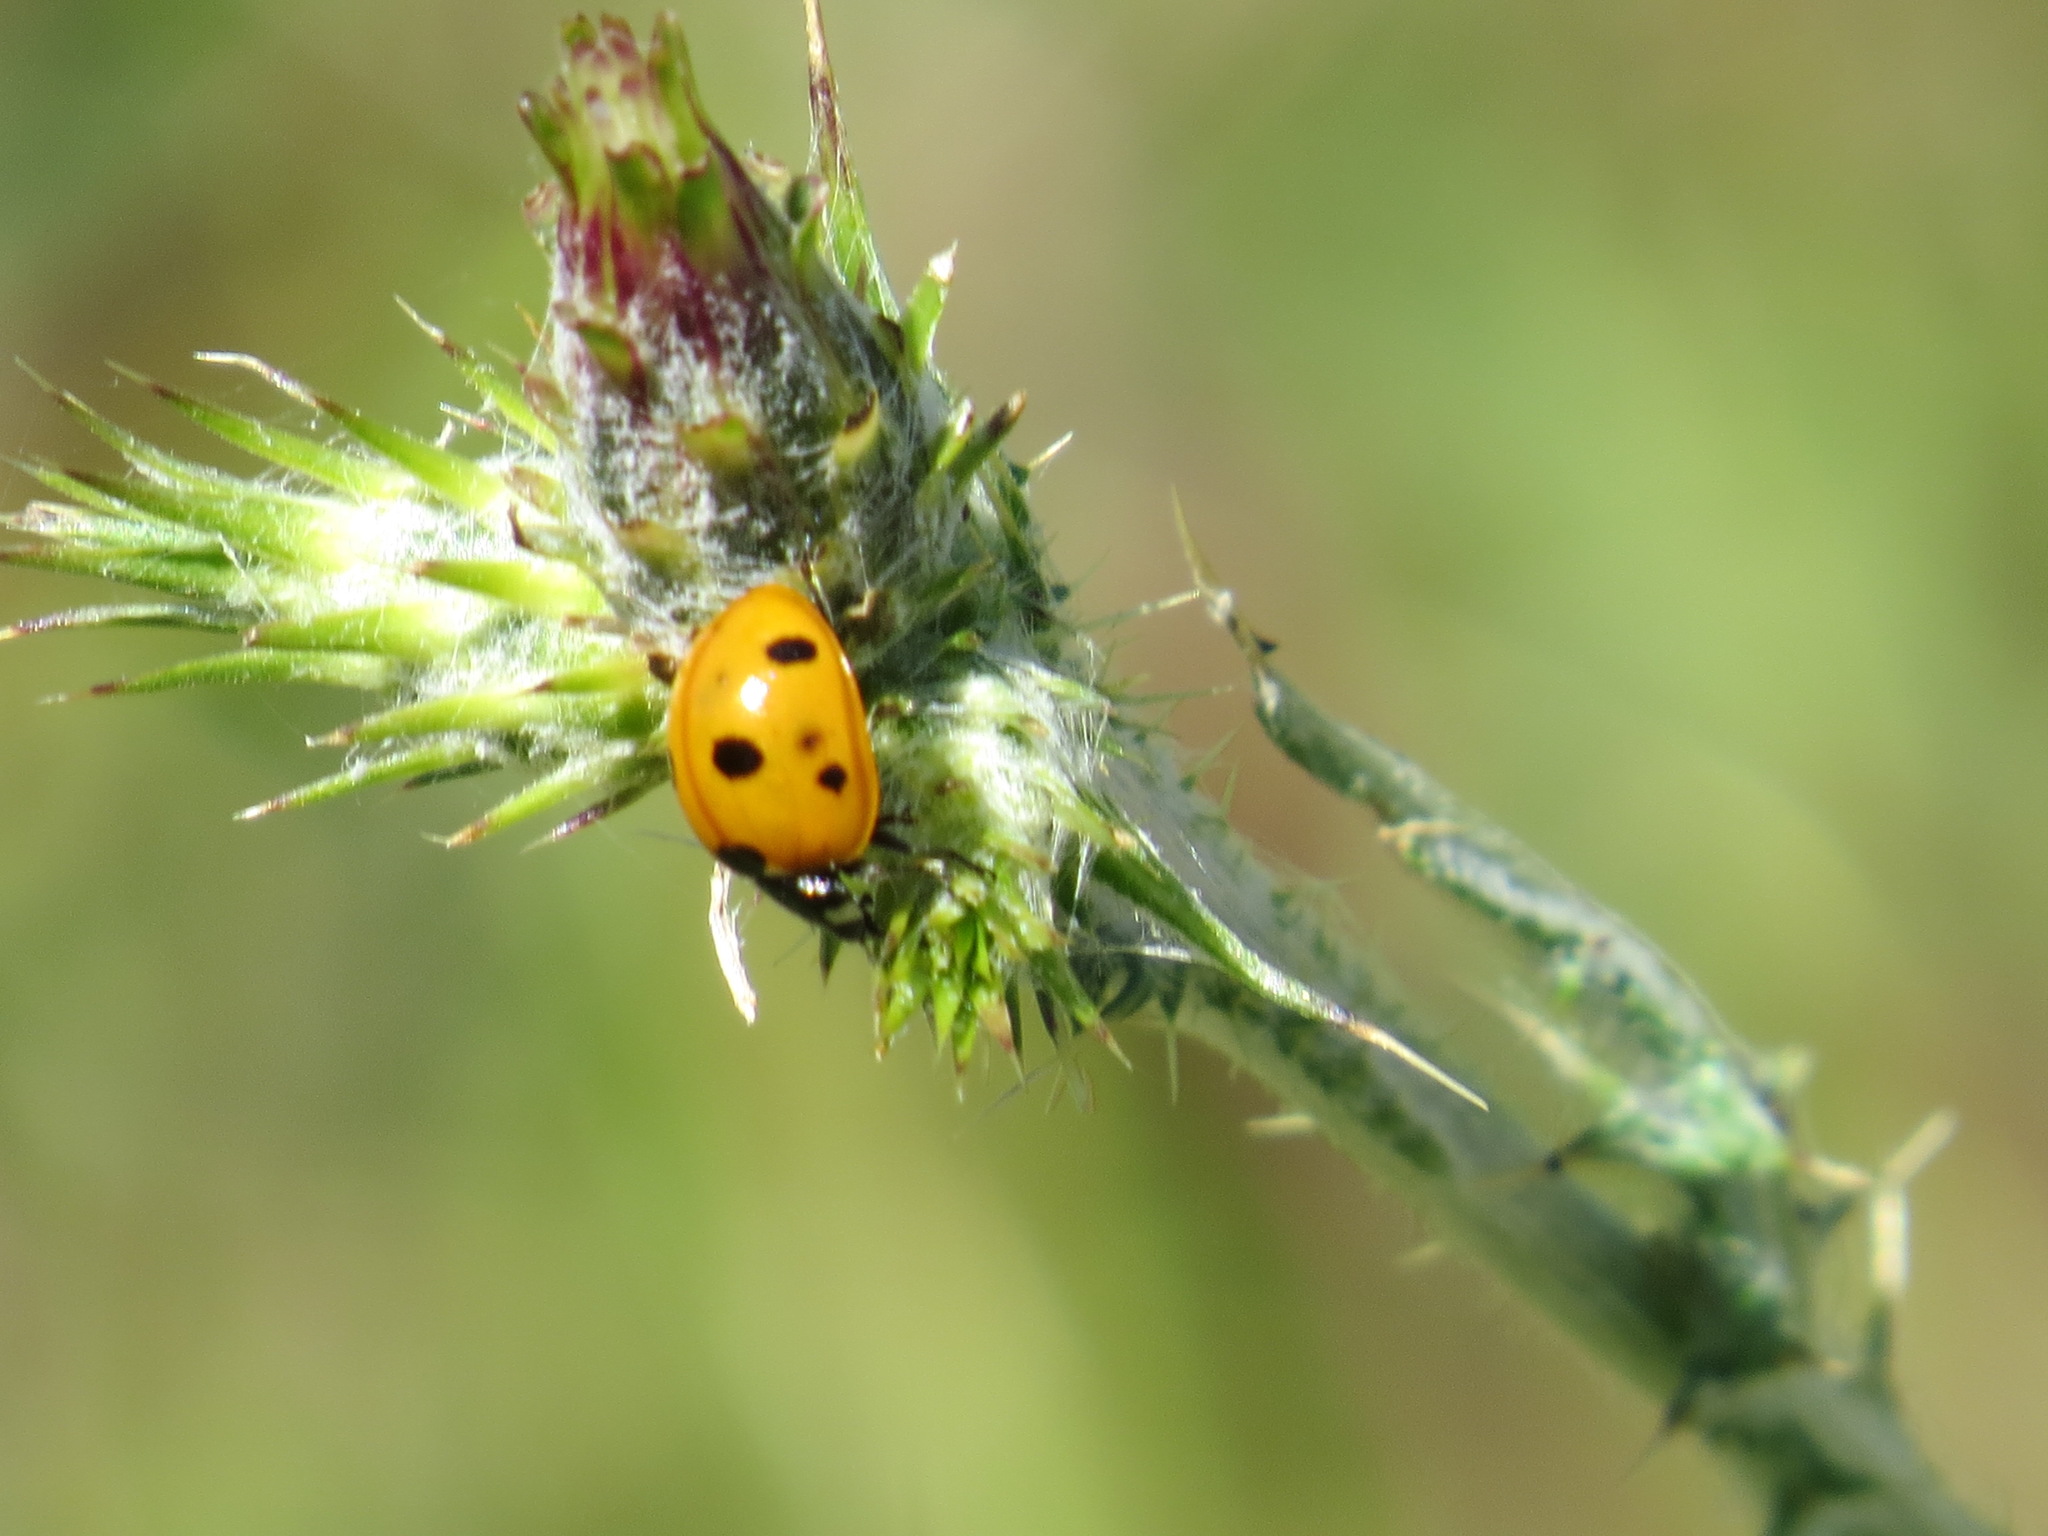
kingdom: Animalia
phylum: Arthropoda
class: Insecta
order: Coleoptera
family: Coccinellidae
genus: Coccinella
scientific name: Coccinella septempunctata
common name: Sevenspotted lady beetle
